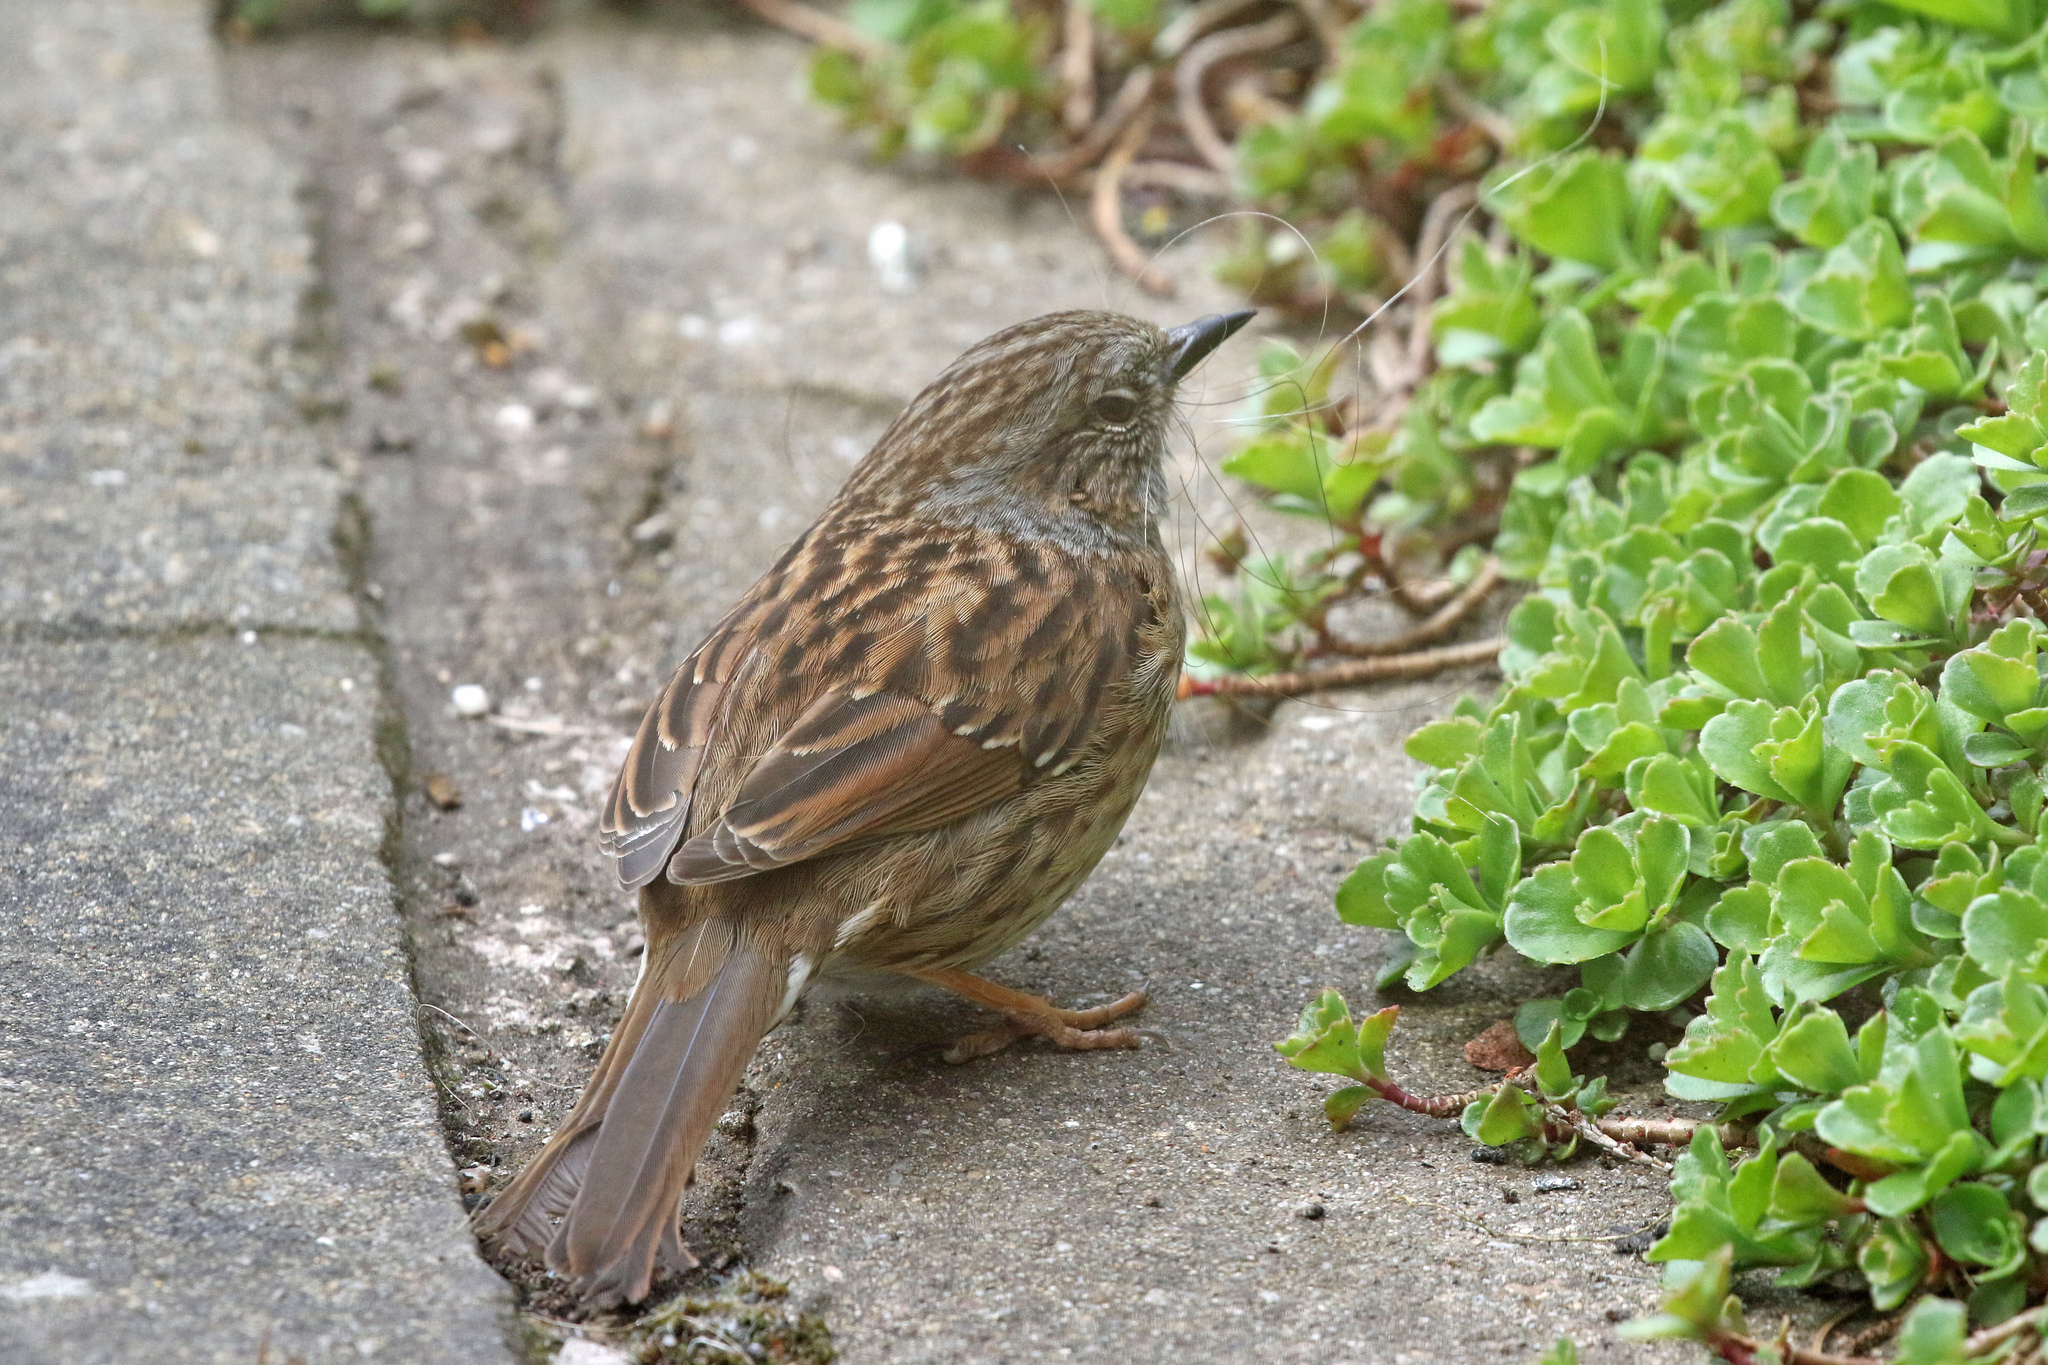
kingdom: Animalia
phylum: Chordata
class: Aves
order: Passeriformes
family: Prunellidae
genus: Prunella
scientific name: Prunella modularis
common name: Dunnock
